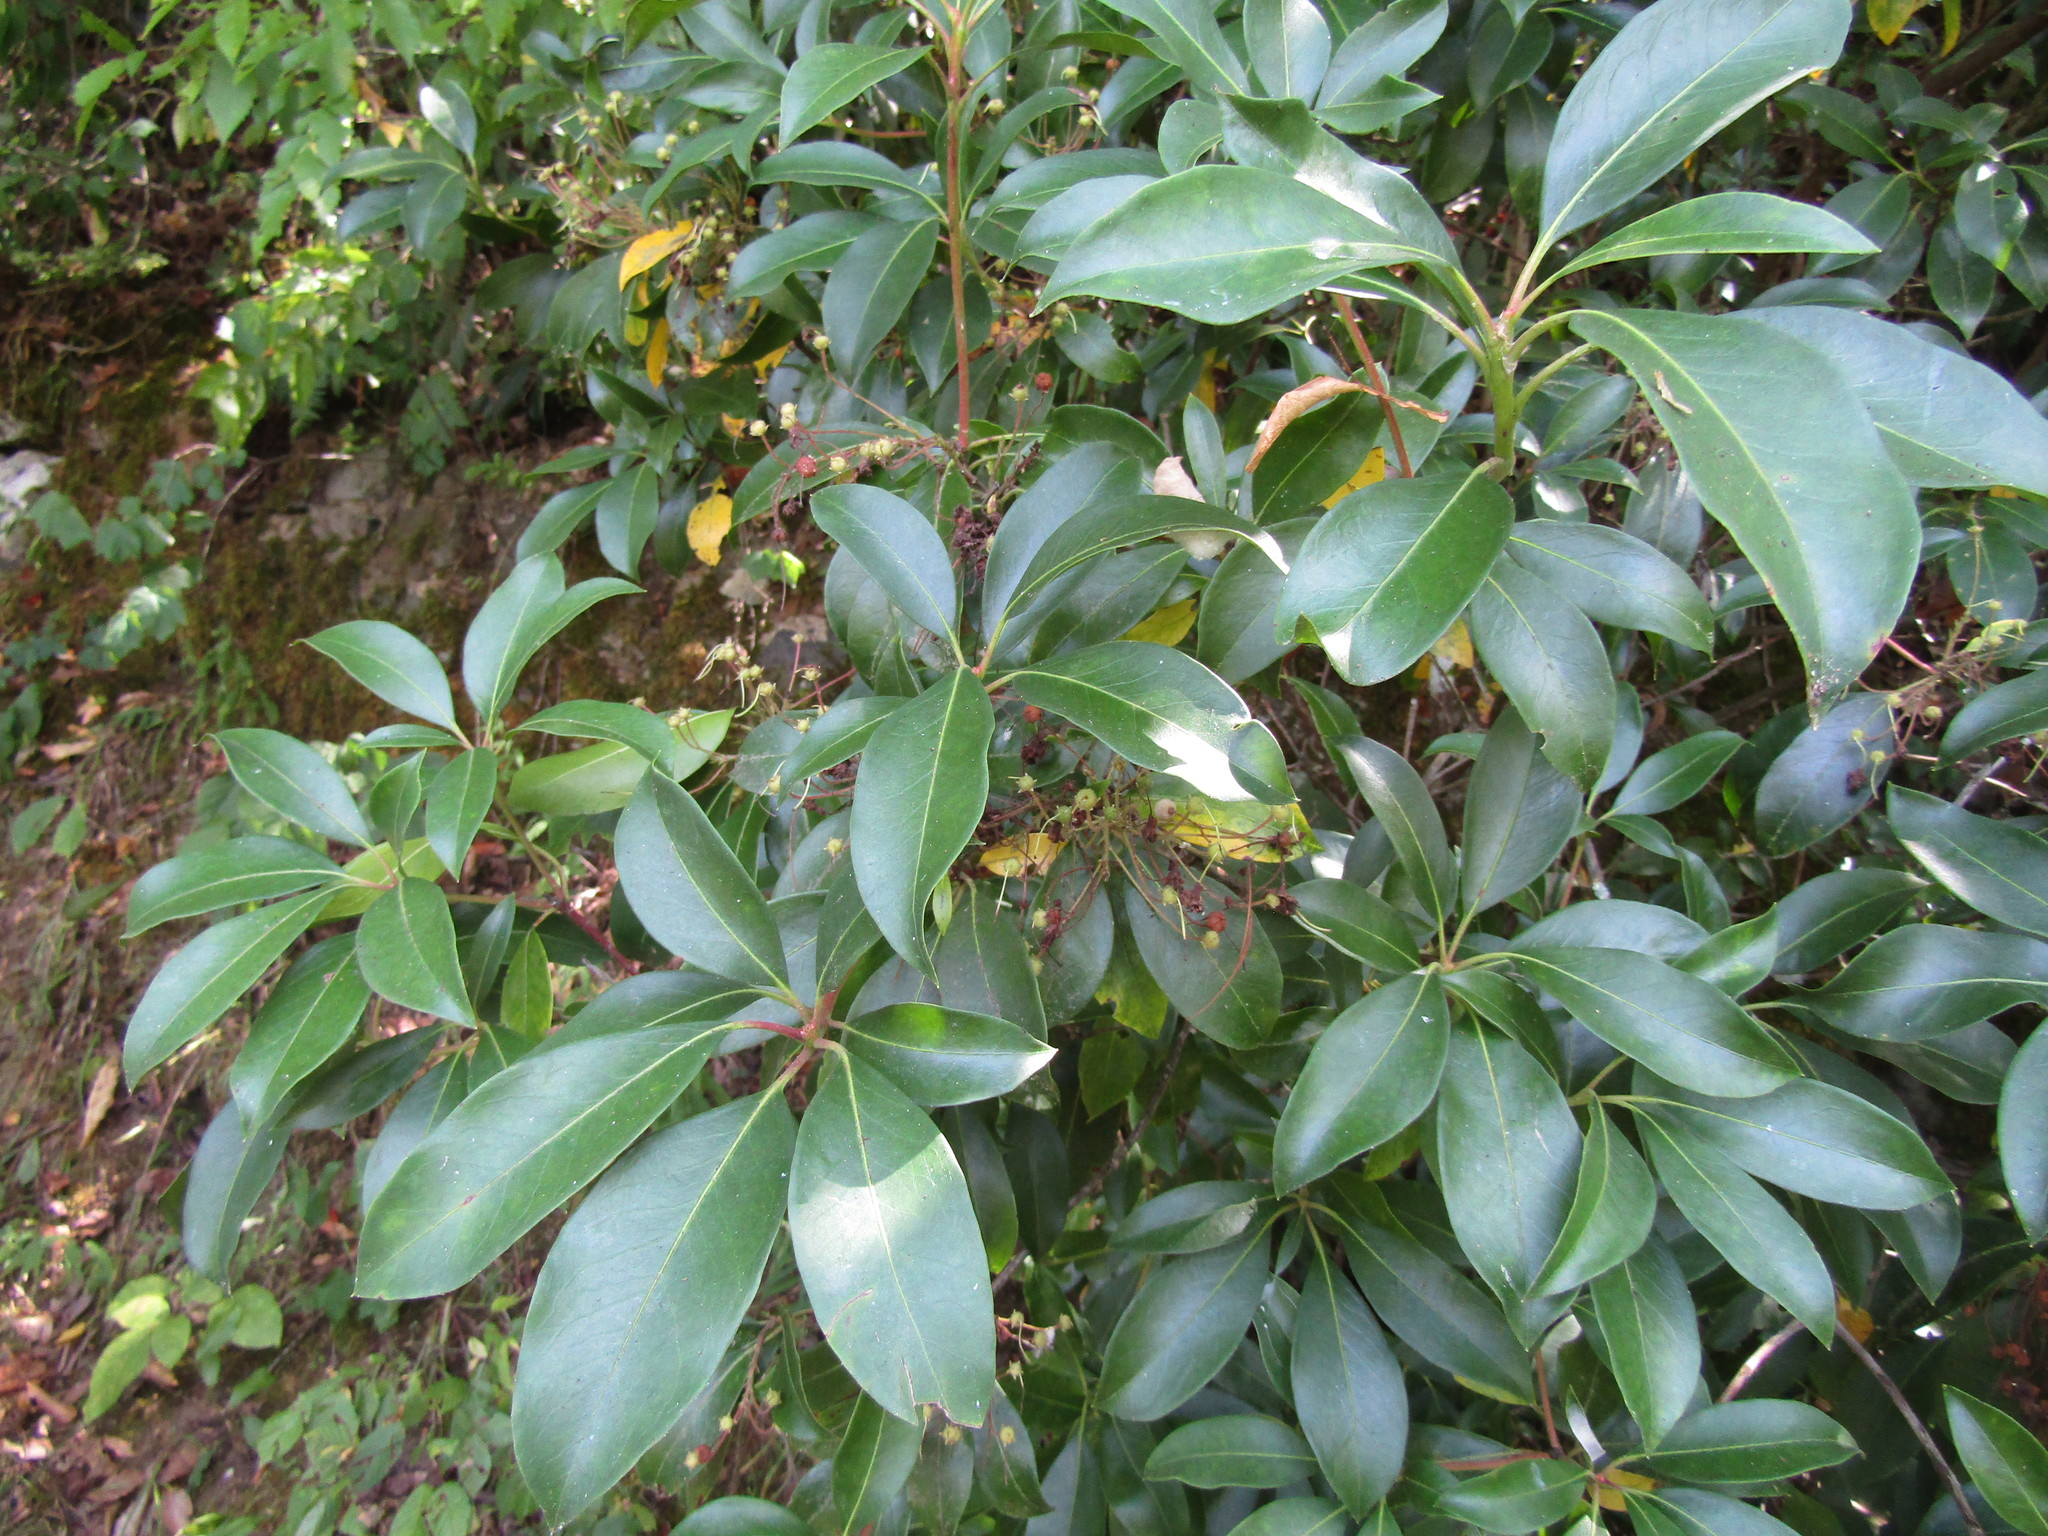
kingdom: Plantae
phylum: Tracheophyta
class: Magnoliopsida
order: Ericales
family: Ericaceae
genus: Kalmia
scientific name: Kalmia latifolia
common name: Mountain-laurel
